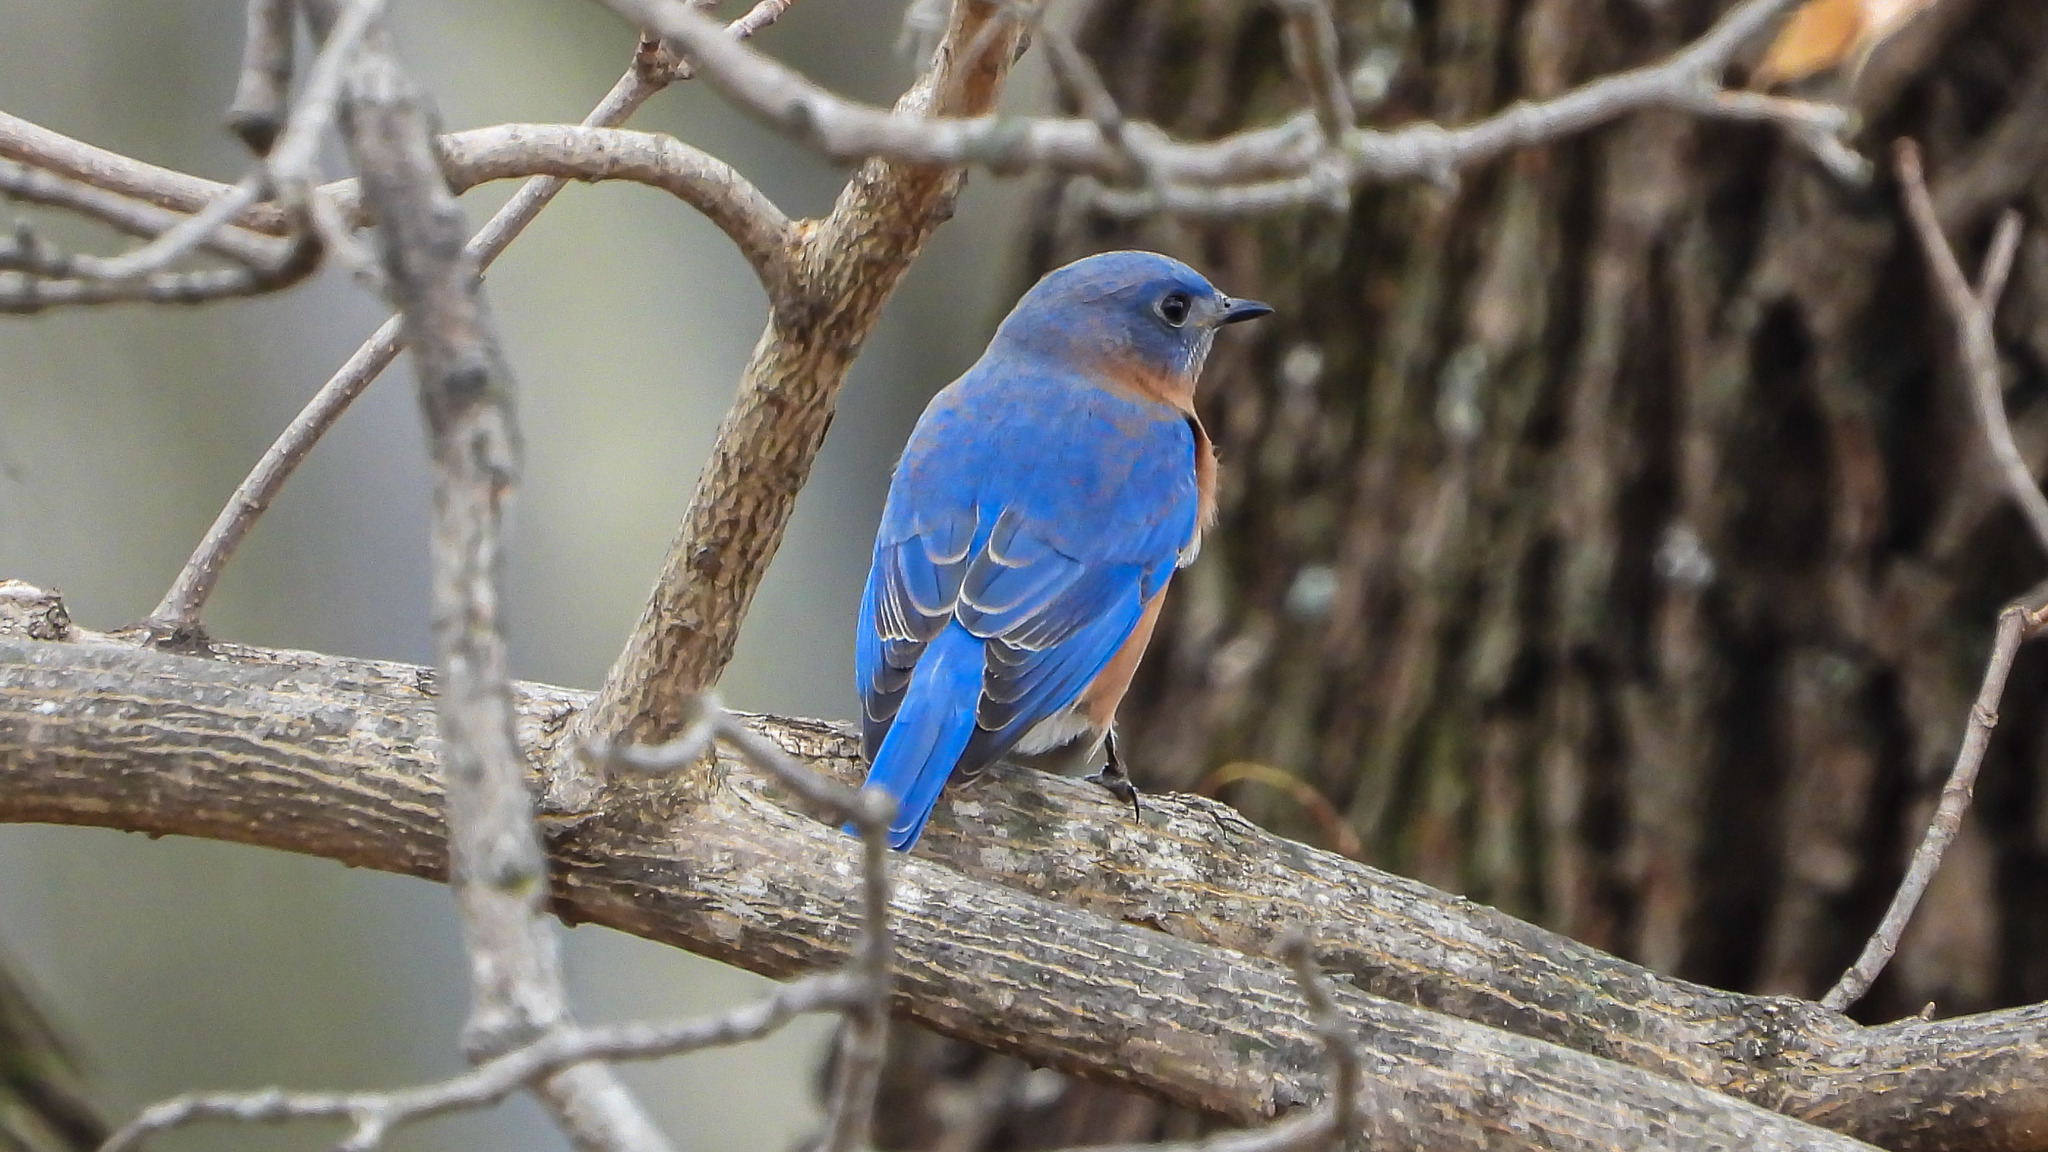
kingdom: Animalia
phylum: Chordata
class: Aves
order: Passeriformes
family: Turdidae
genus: Sialia
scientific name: Sialia sialis
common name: Eastern bluebird
